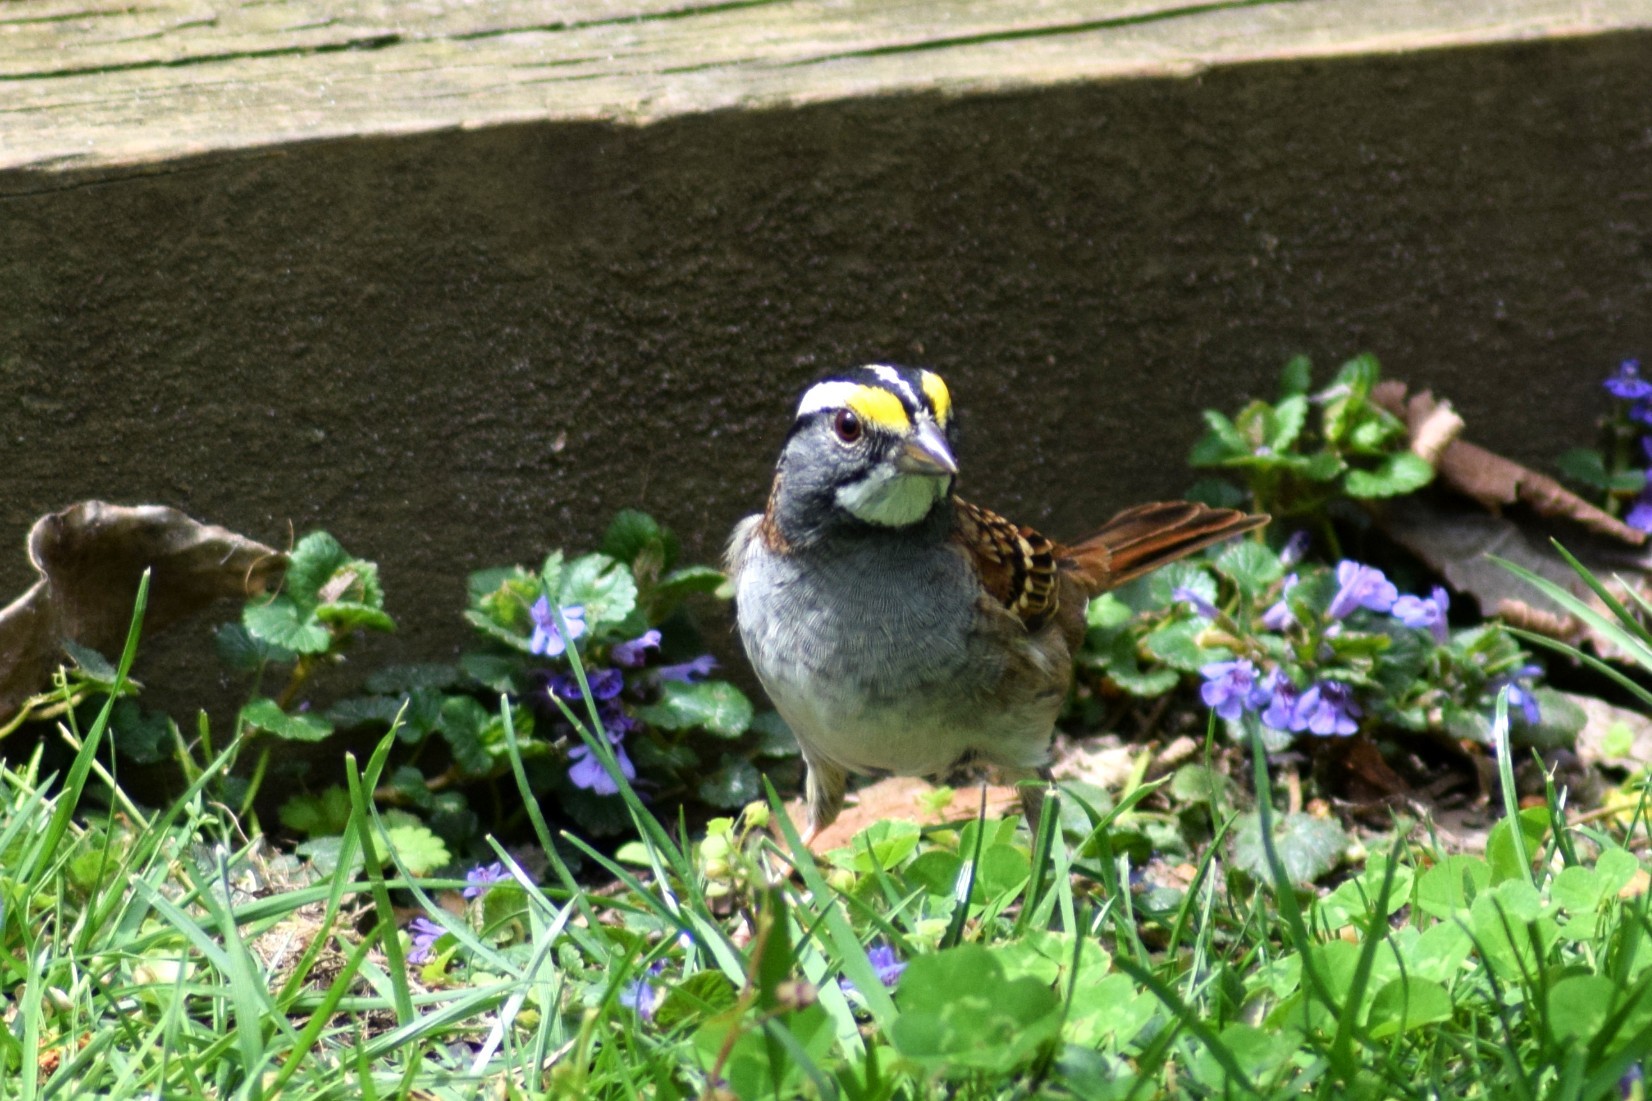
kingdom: Animalia
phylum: Chordata
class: Aves
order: Passeriformes
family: Passerellidae
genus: Zonotrichia
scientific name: Zonotrichia albicollis
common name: White-throated sparrow
